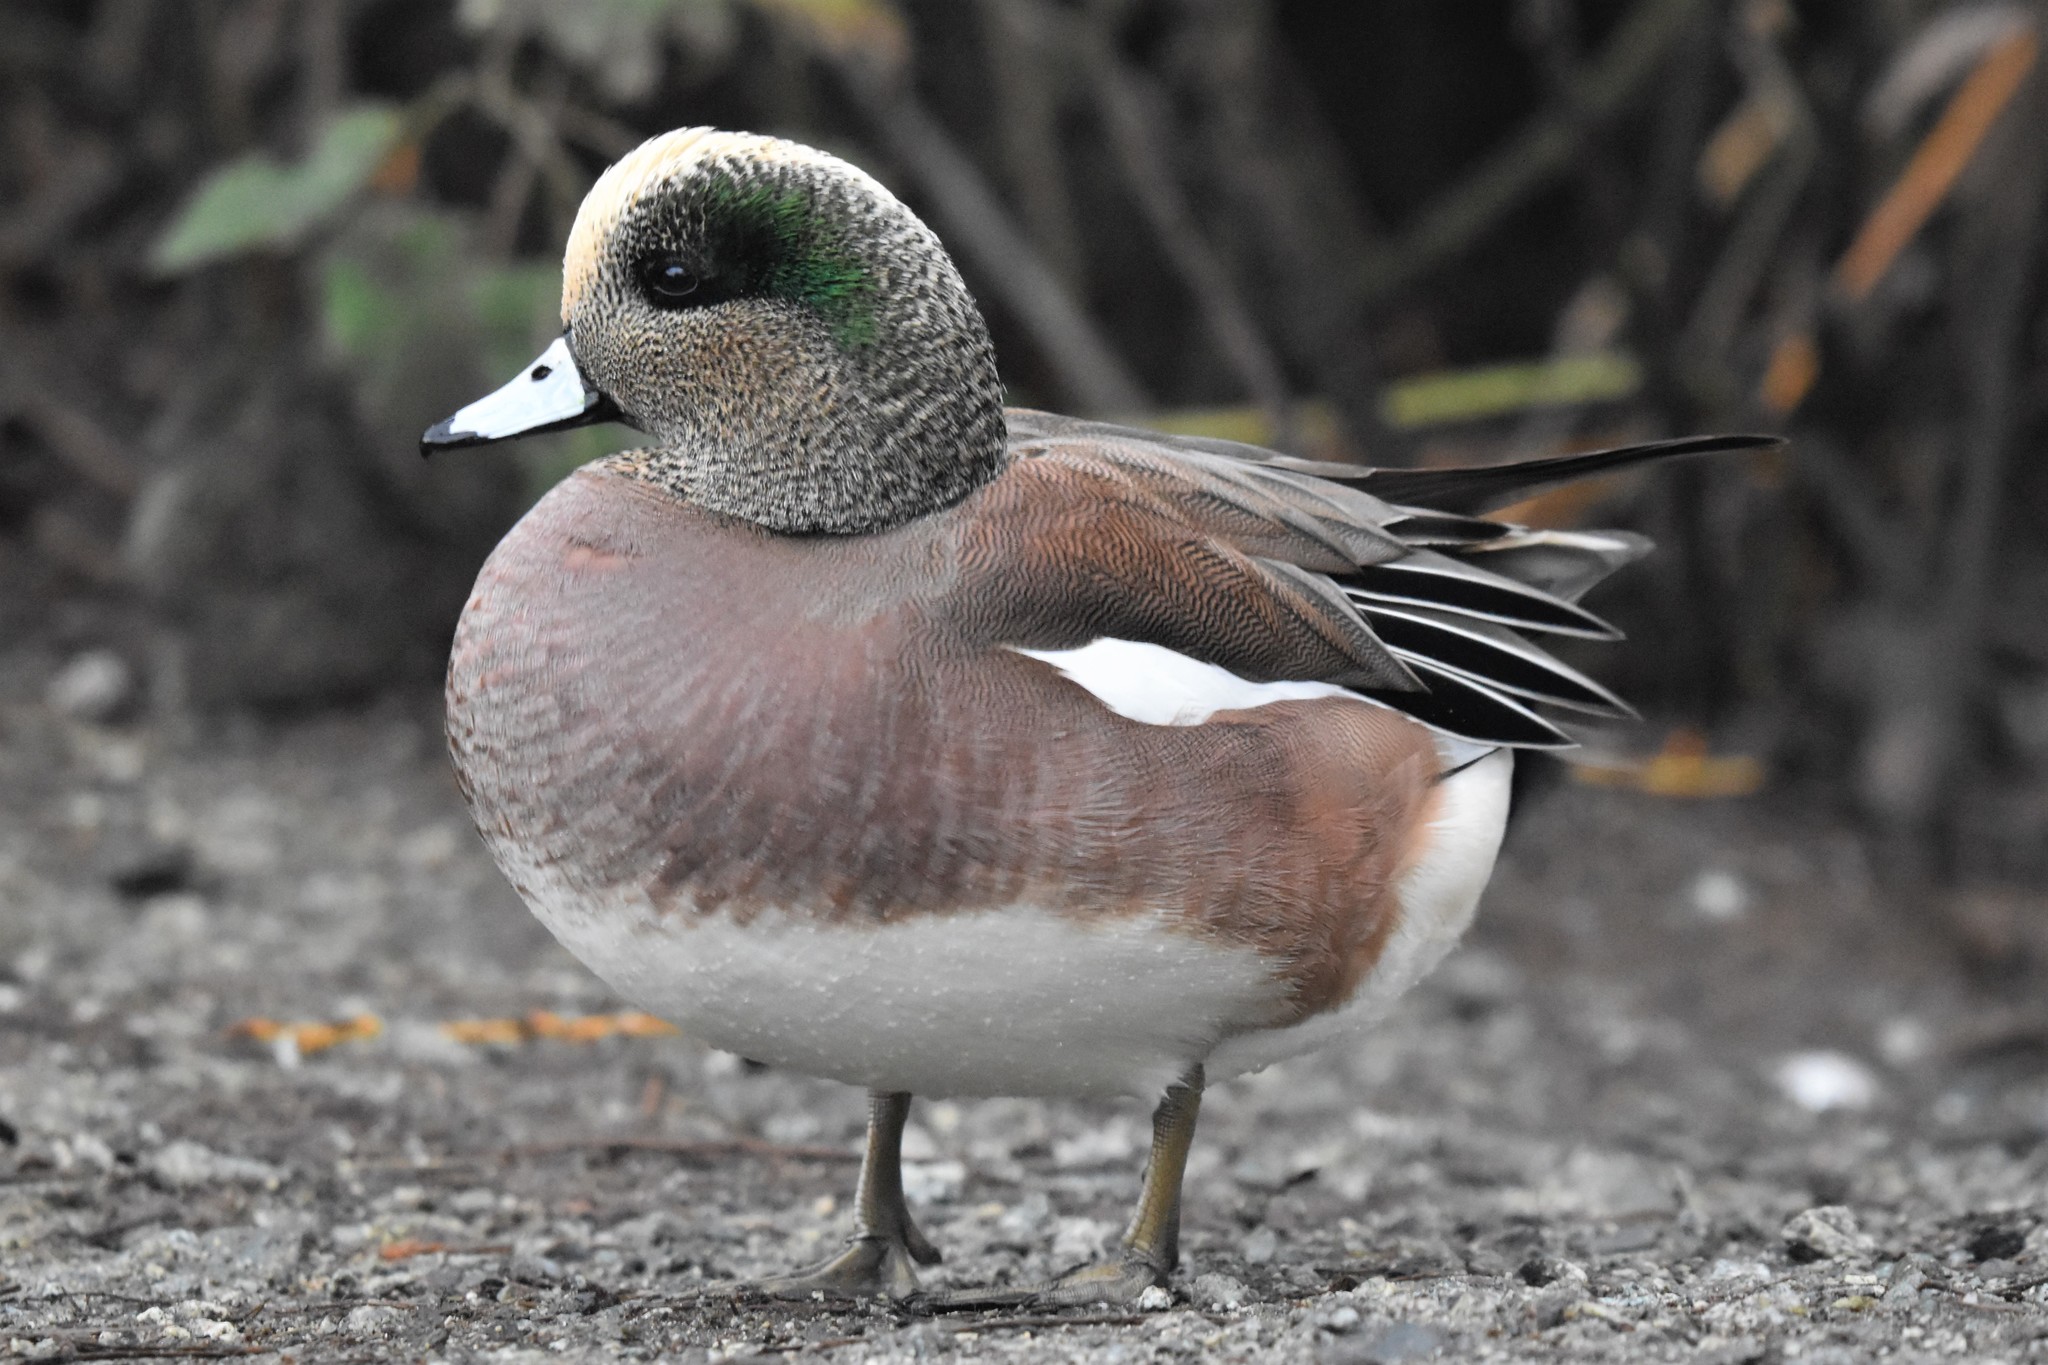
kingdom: Animalia
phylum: Chordata
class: Aves
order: Anseriformes
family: Anatidae
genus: Mareca
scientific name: Mareca americana
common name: American wigeon
